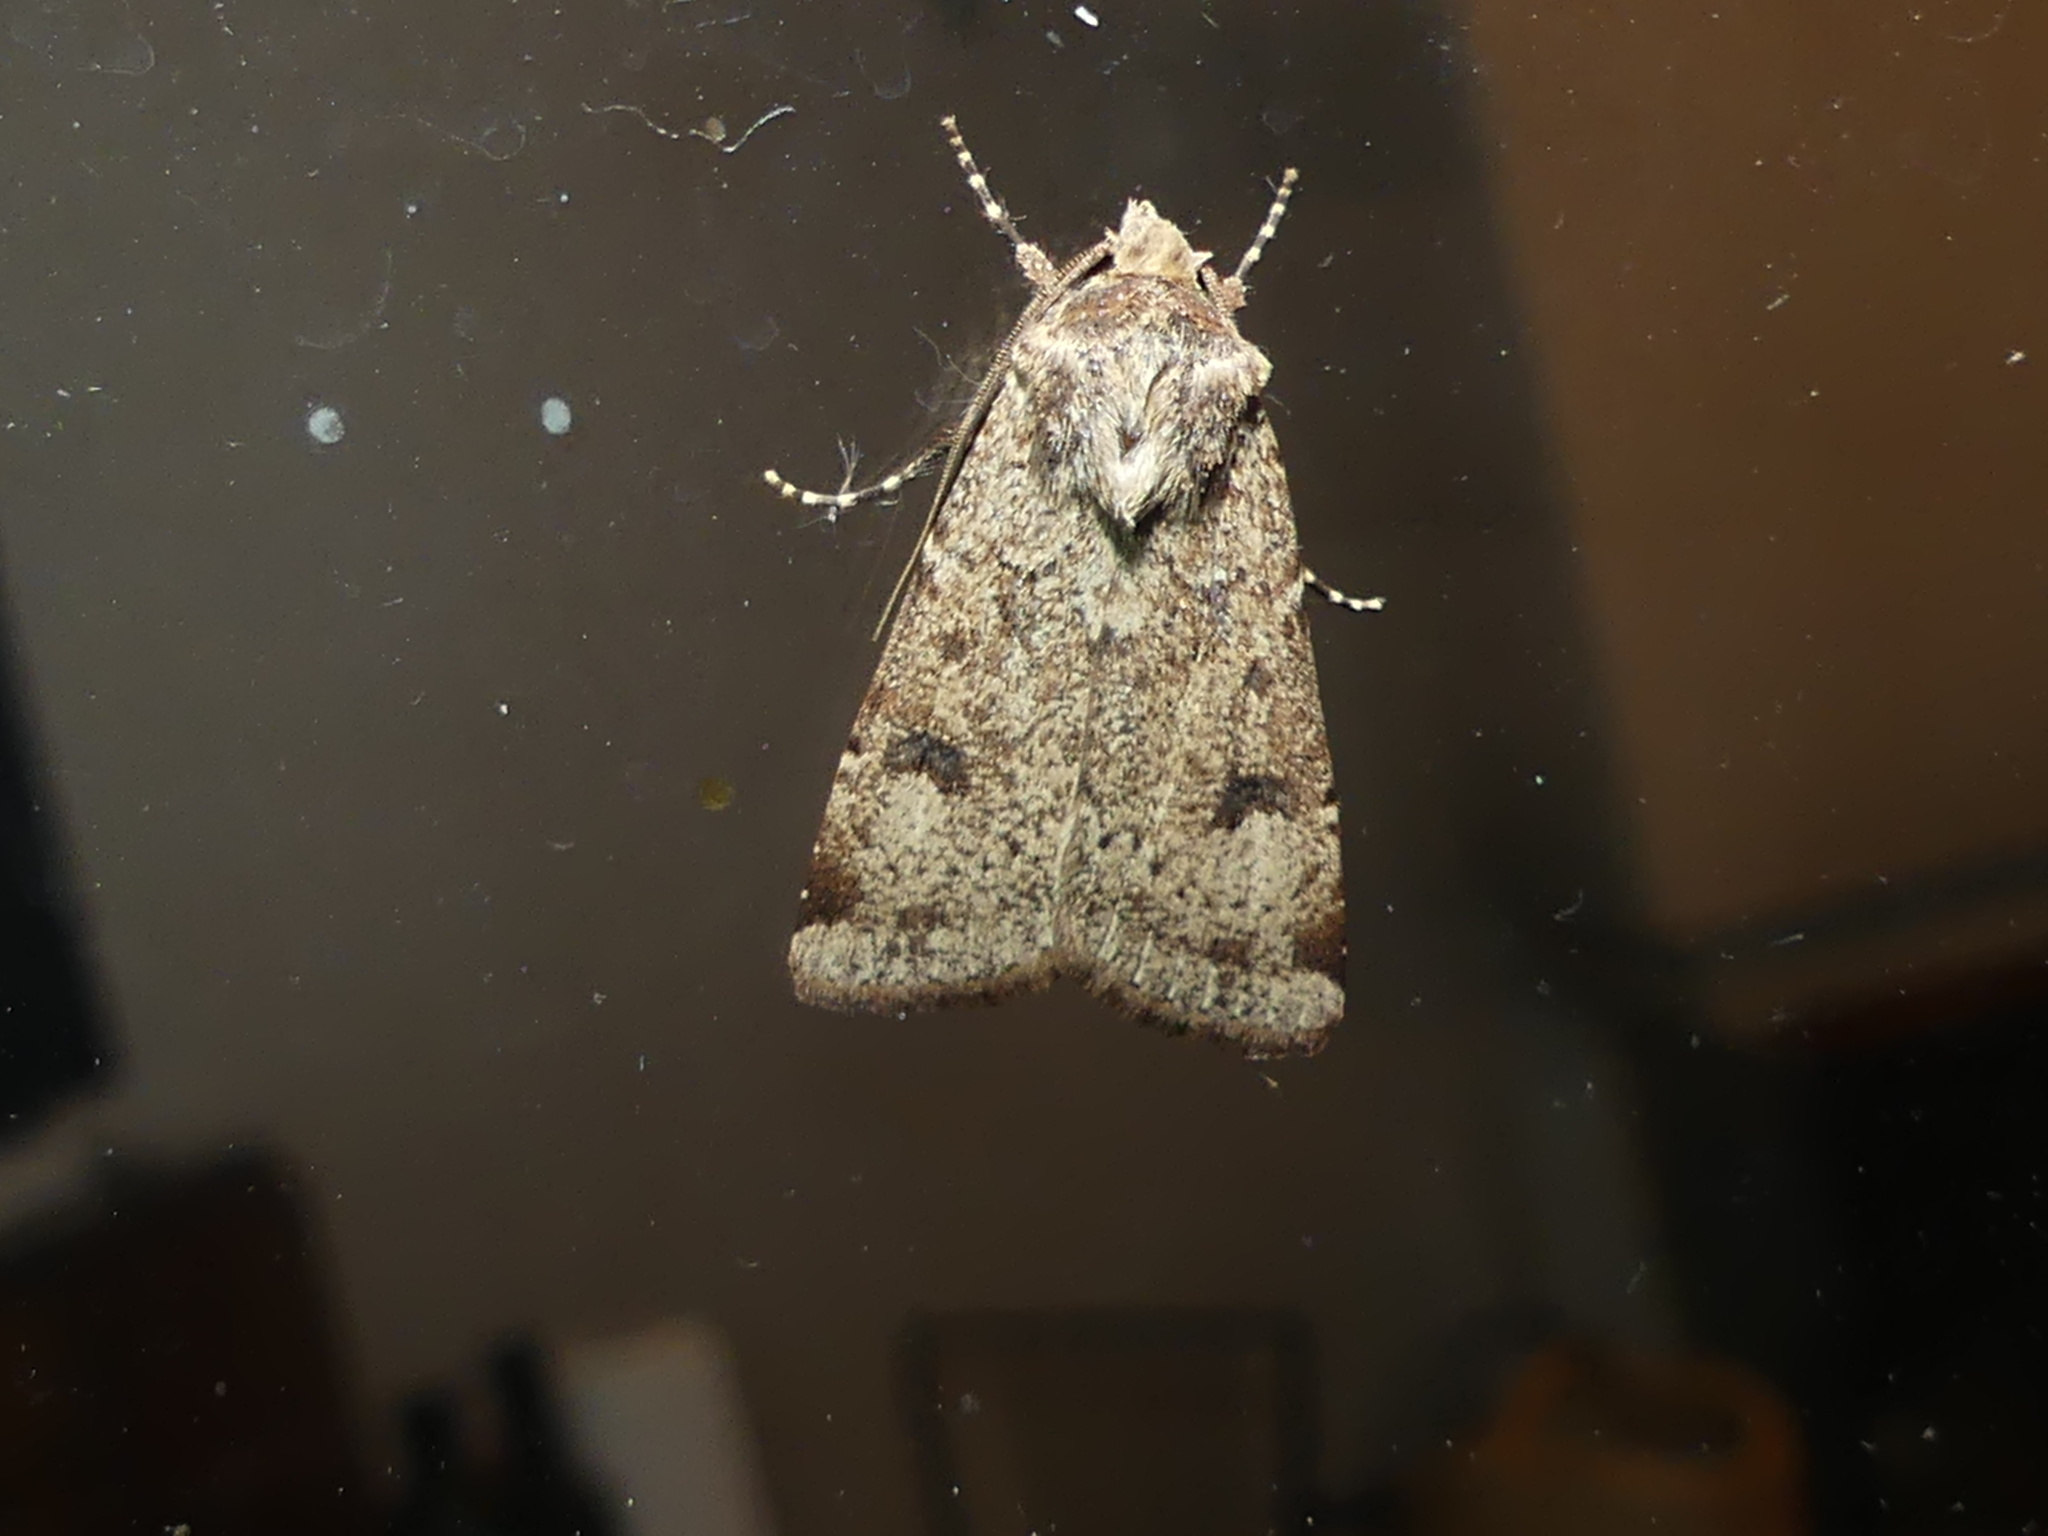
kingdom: Animalia
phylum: Arthropoda
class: Insecta
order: Lepidoptera
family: Noctuidae
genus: Agrotis
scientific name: Agrotis trux
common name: Crescent dart
